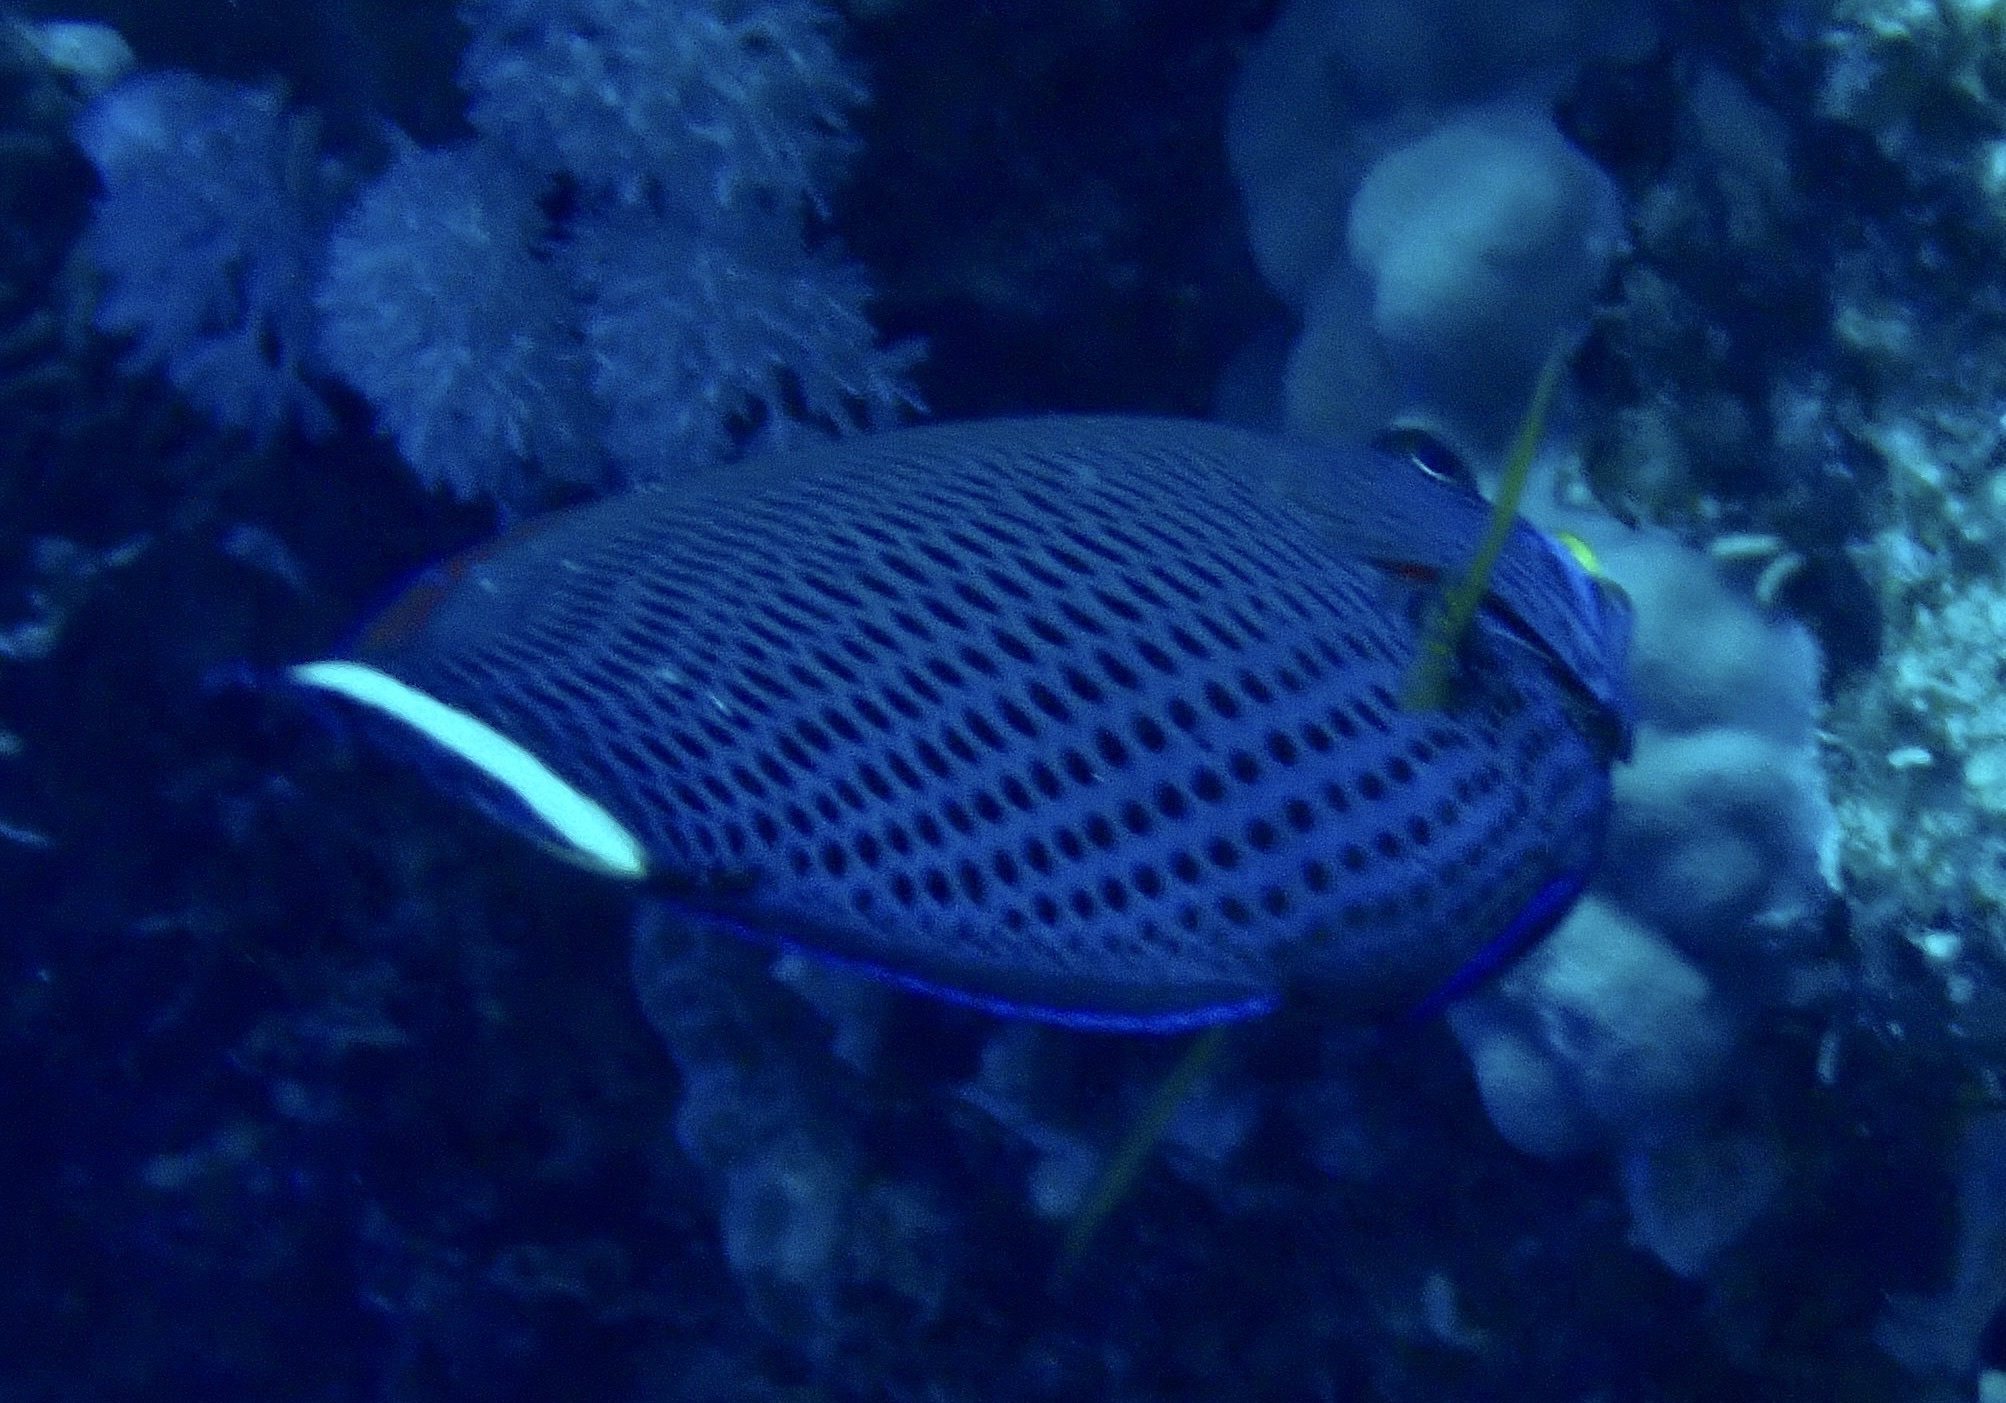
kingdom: Animalia
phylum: Chordata
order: Perciformes
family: Labridae
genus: Pseudodax
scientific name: Pseudodax moluccanus
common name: Chiseltooth wrasse
